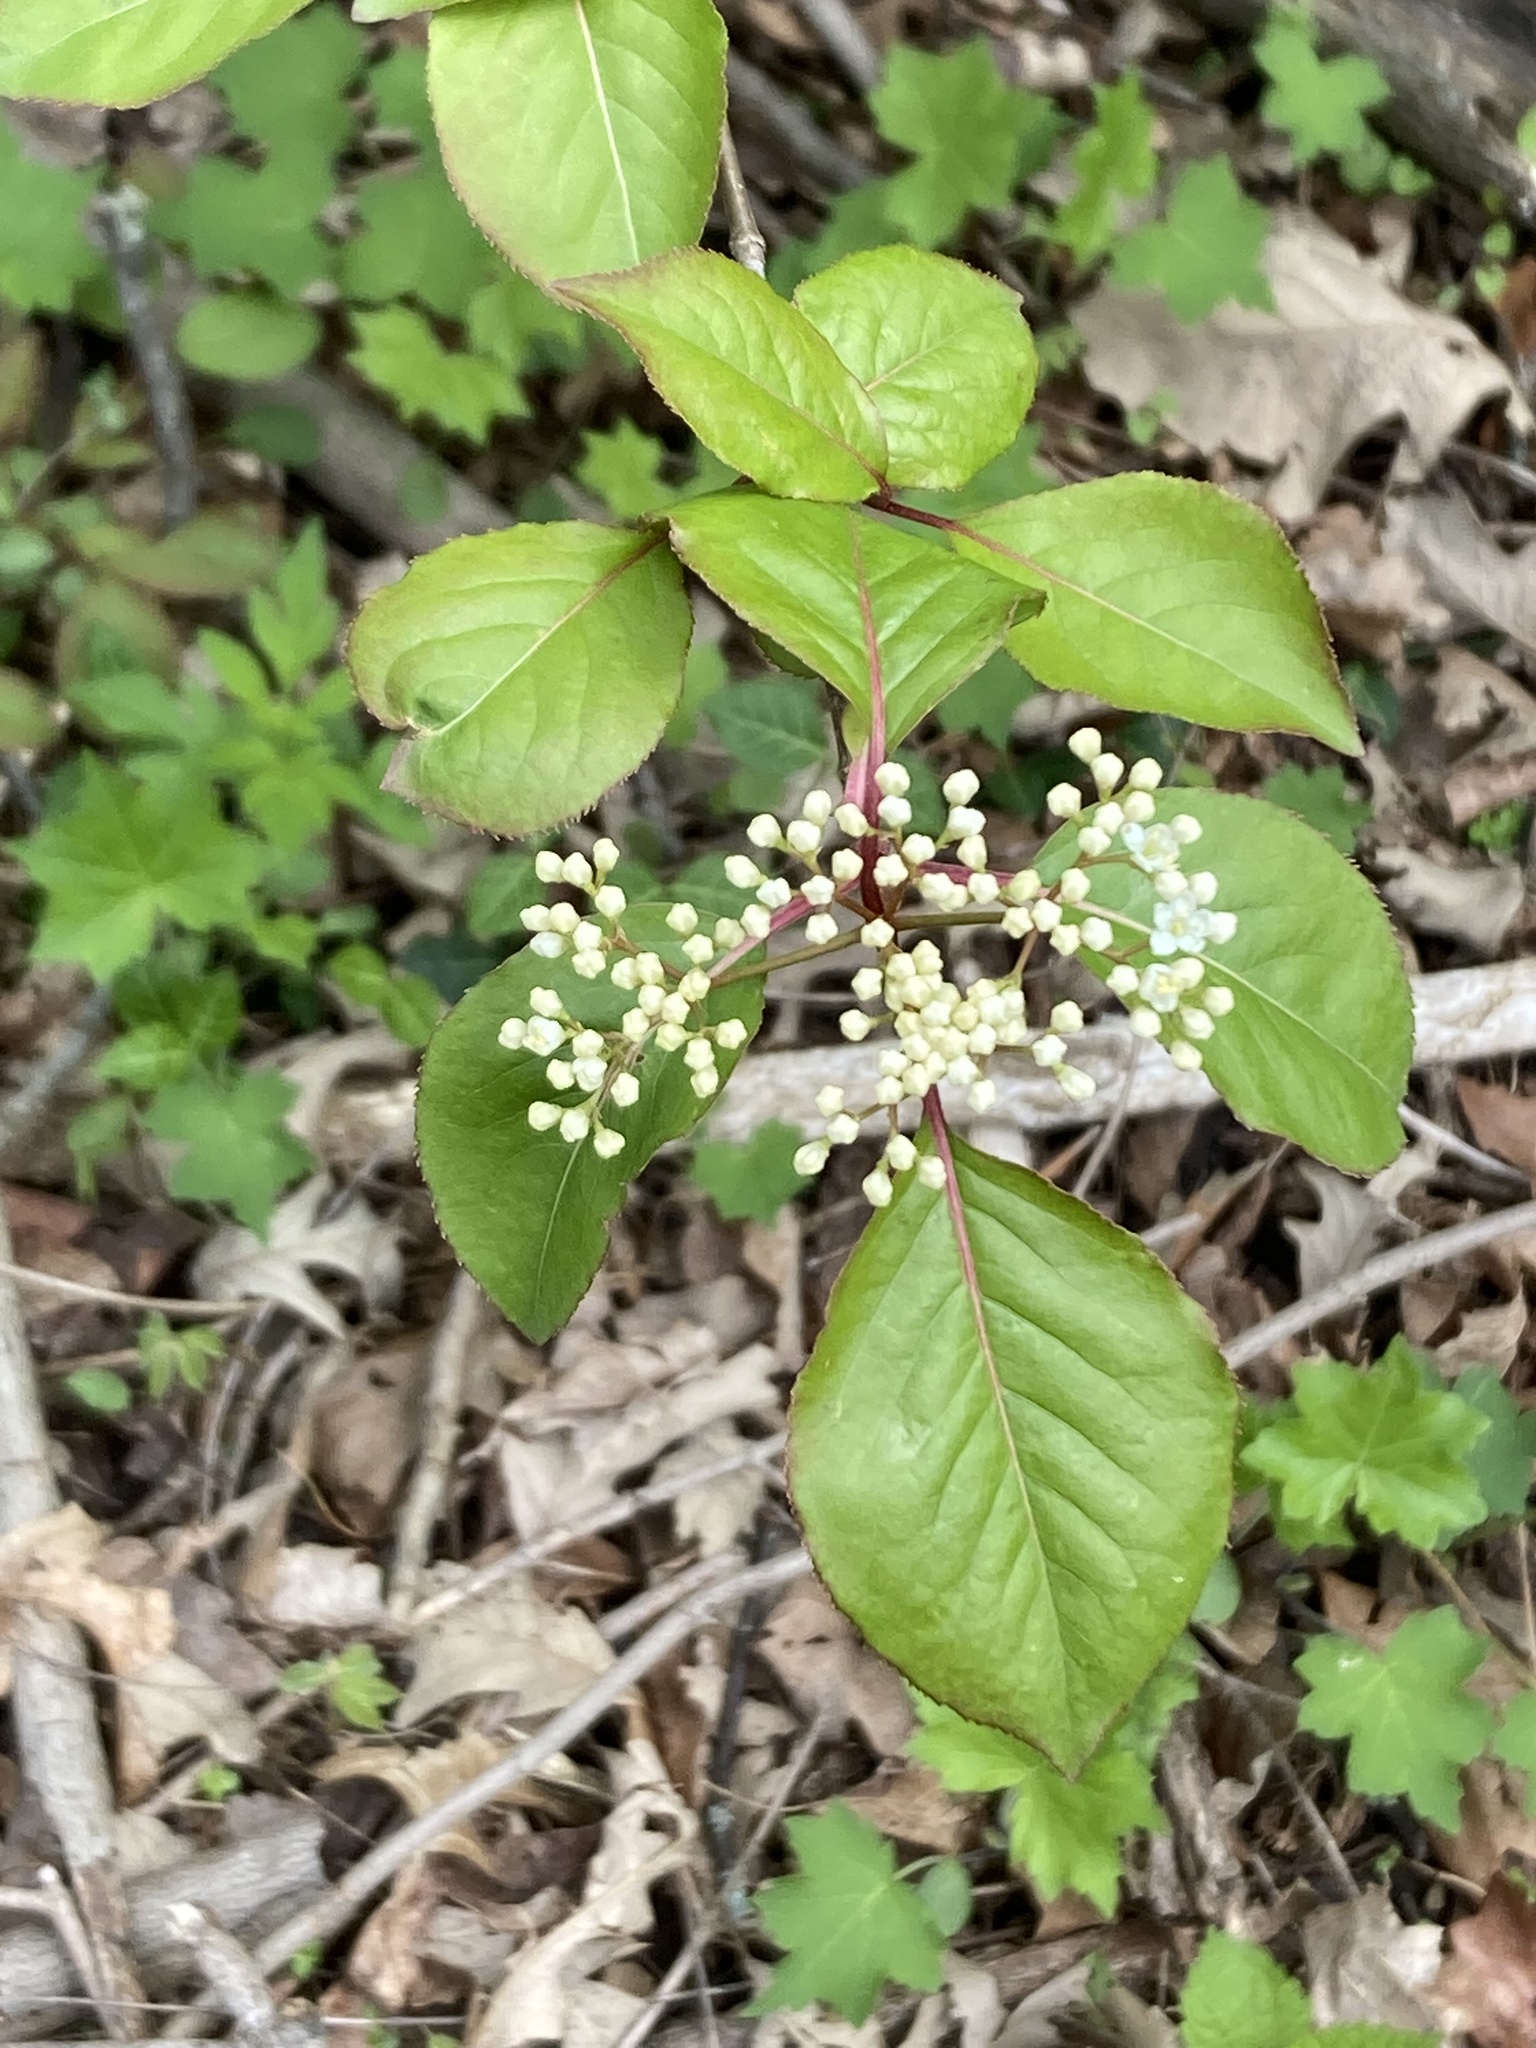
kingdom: Plantae
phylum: Tracheophyta
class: Magnoliopsida
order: Dipsacales
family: Viburnaceae
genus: Viburnum
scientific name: Viburnum prunifolium
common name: Black haw
